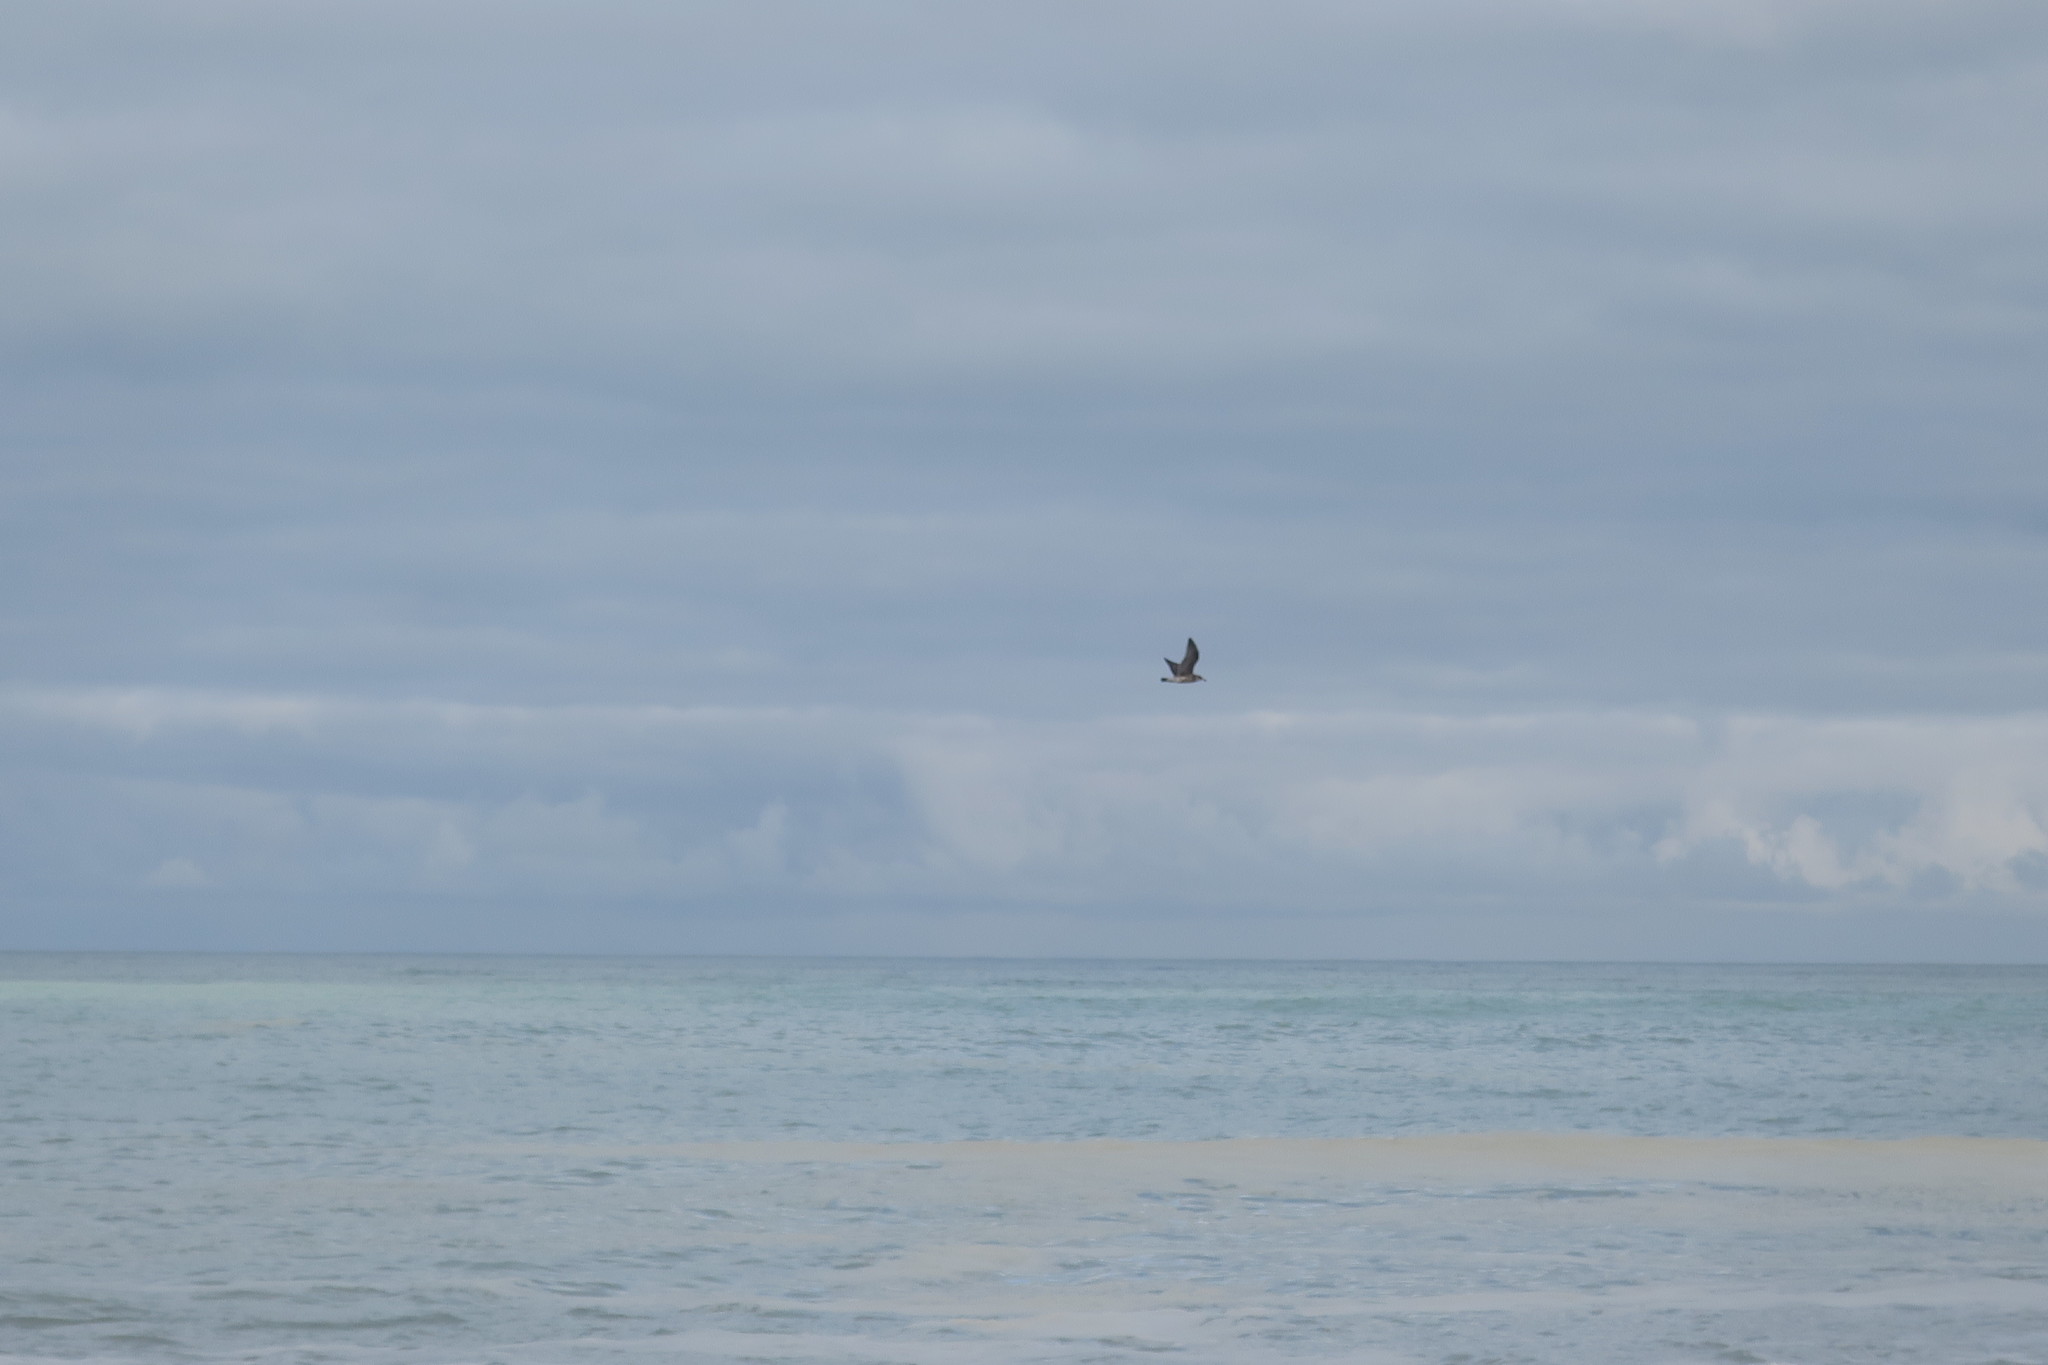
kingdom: Animalia
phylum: Chordata
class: Aves
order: Charadriiformes
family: Laridae
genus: Larus
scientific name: Larus dominicanus
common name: Kelp gull
